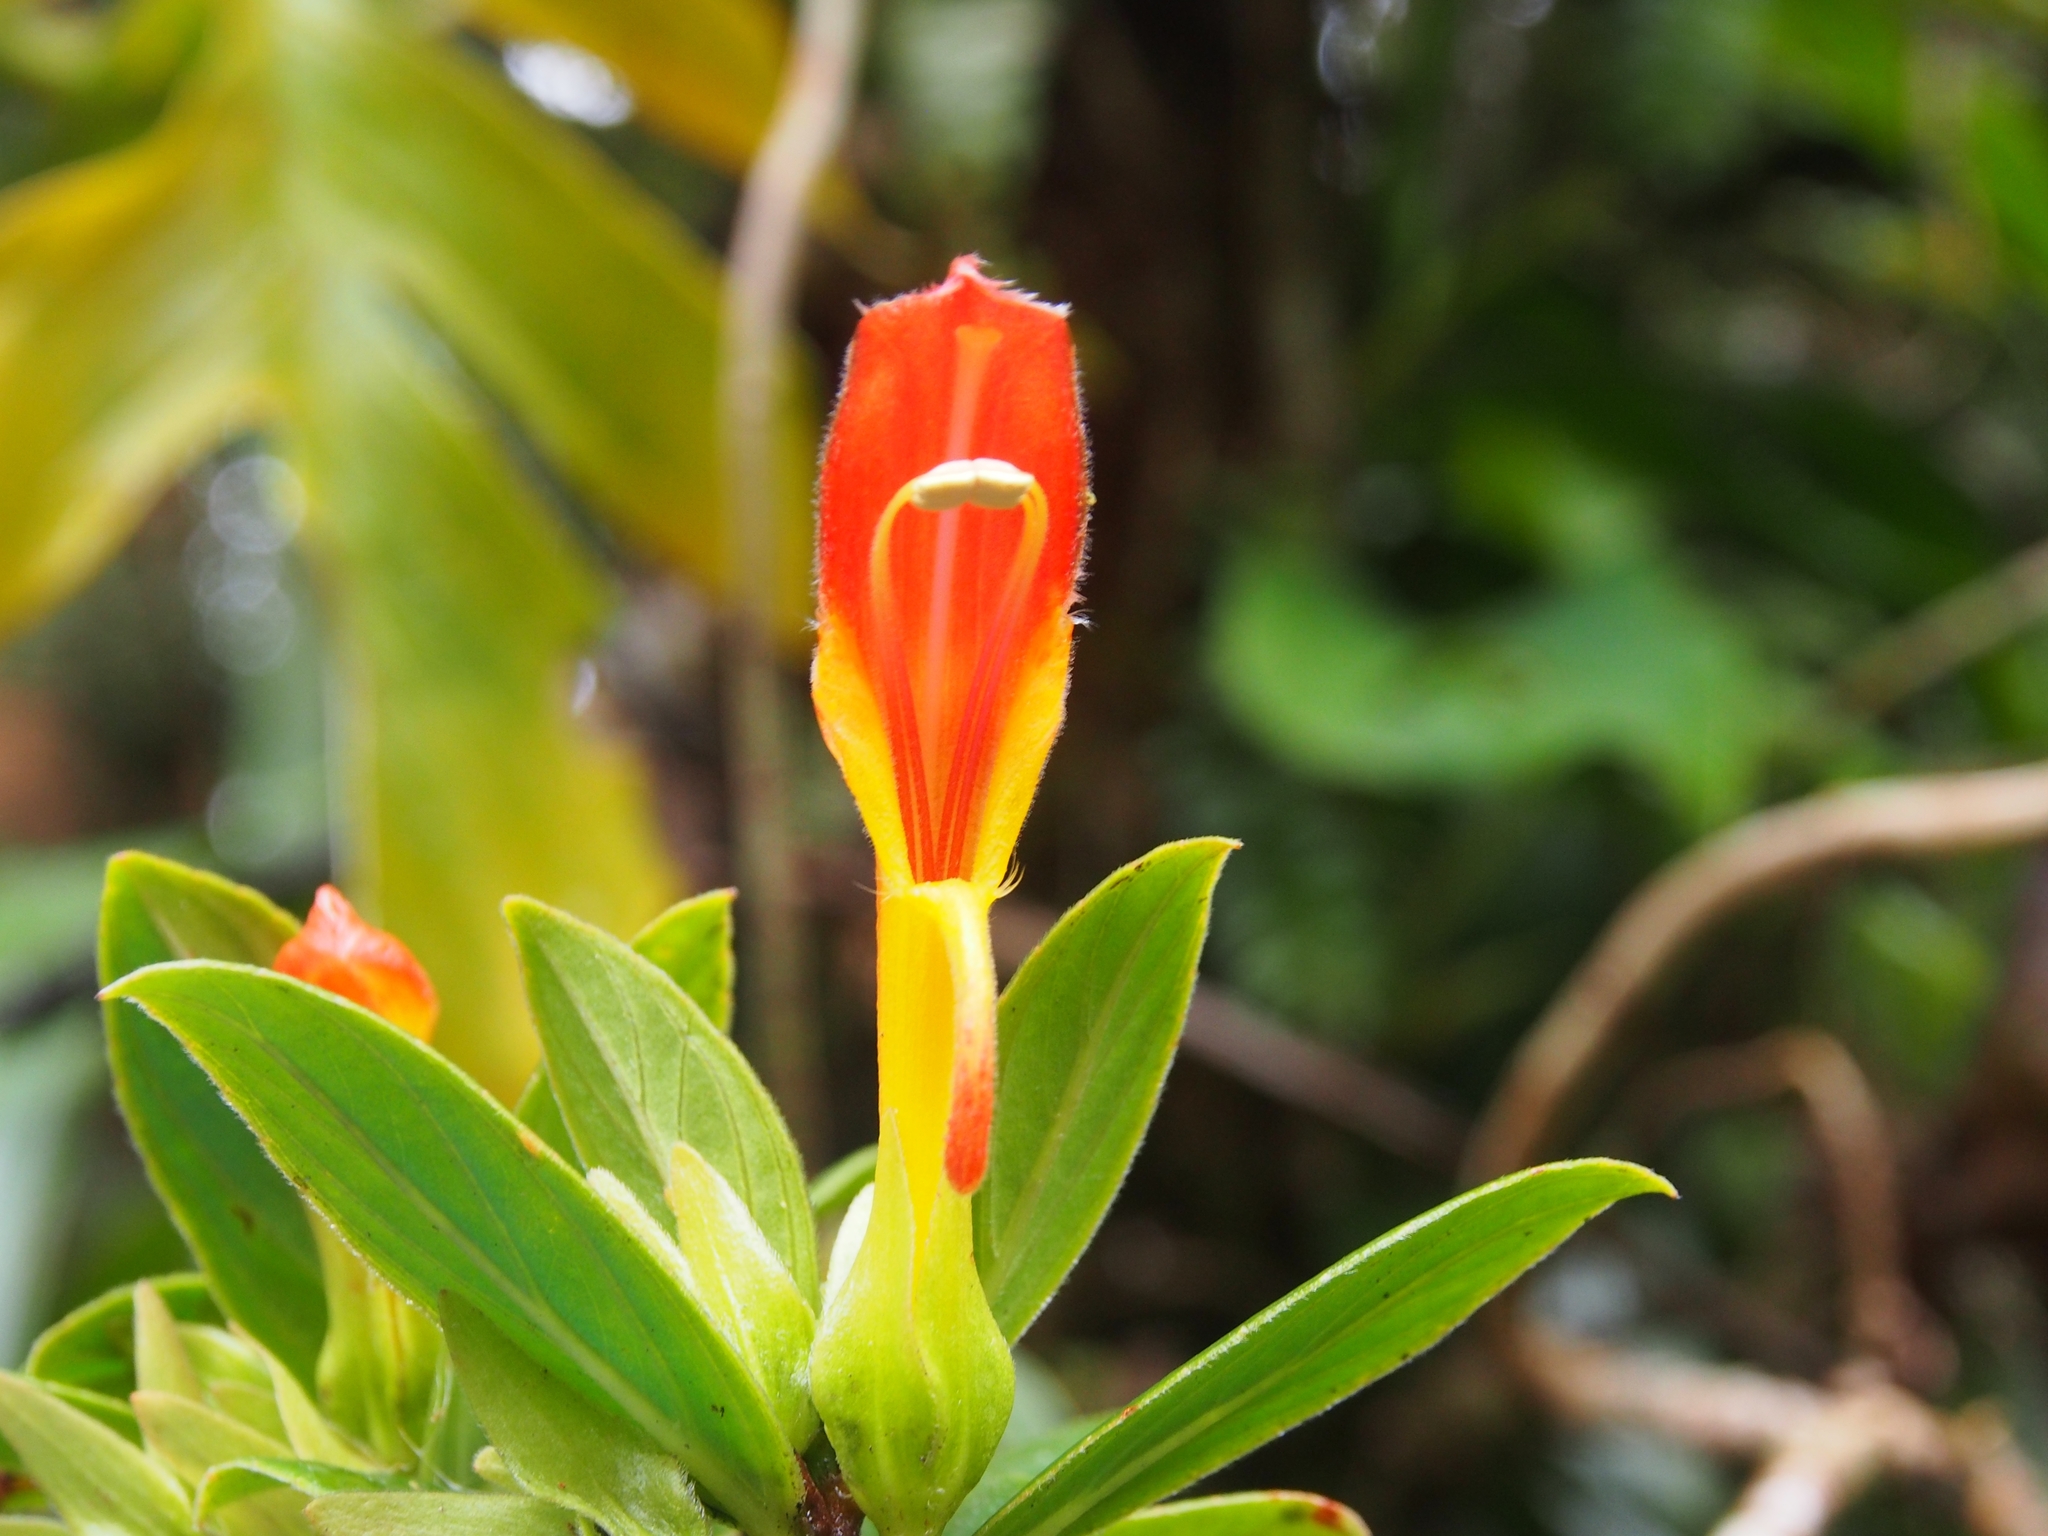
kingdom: Plantae
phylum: Tracheophyta
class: Magnoliopsida
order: Lamiales
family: Gesneriaceae
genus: Columnea
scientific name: Columnea lepidocaula
